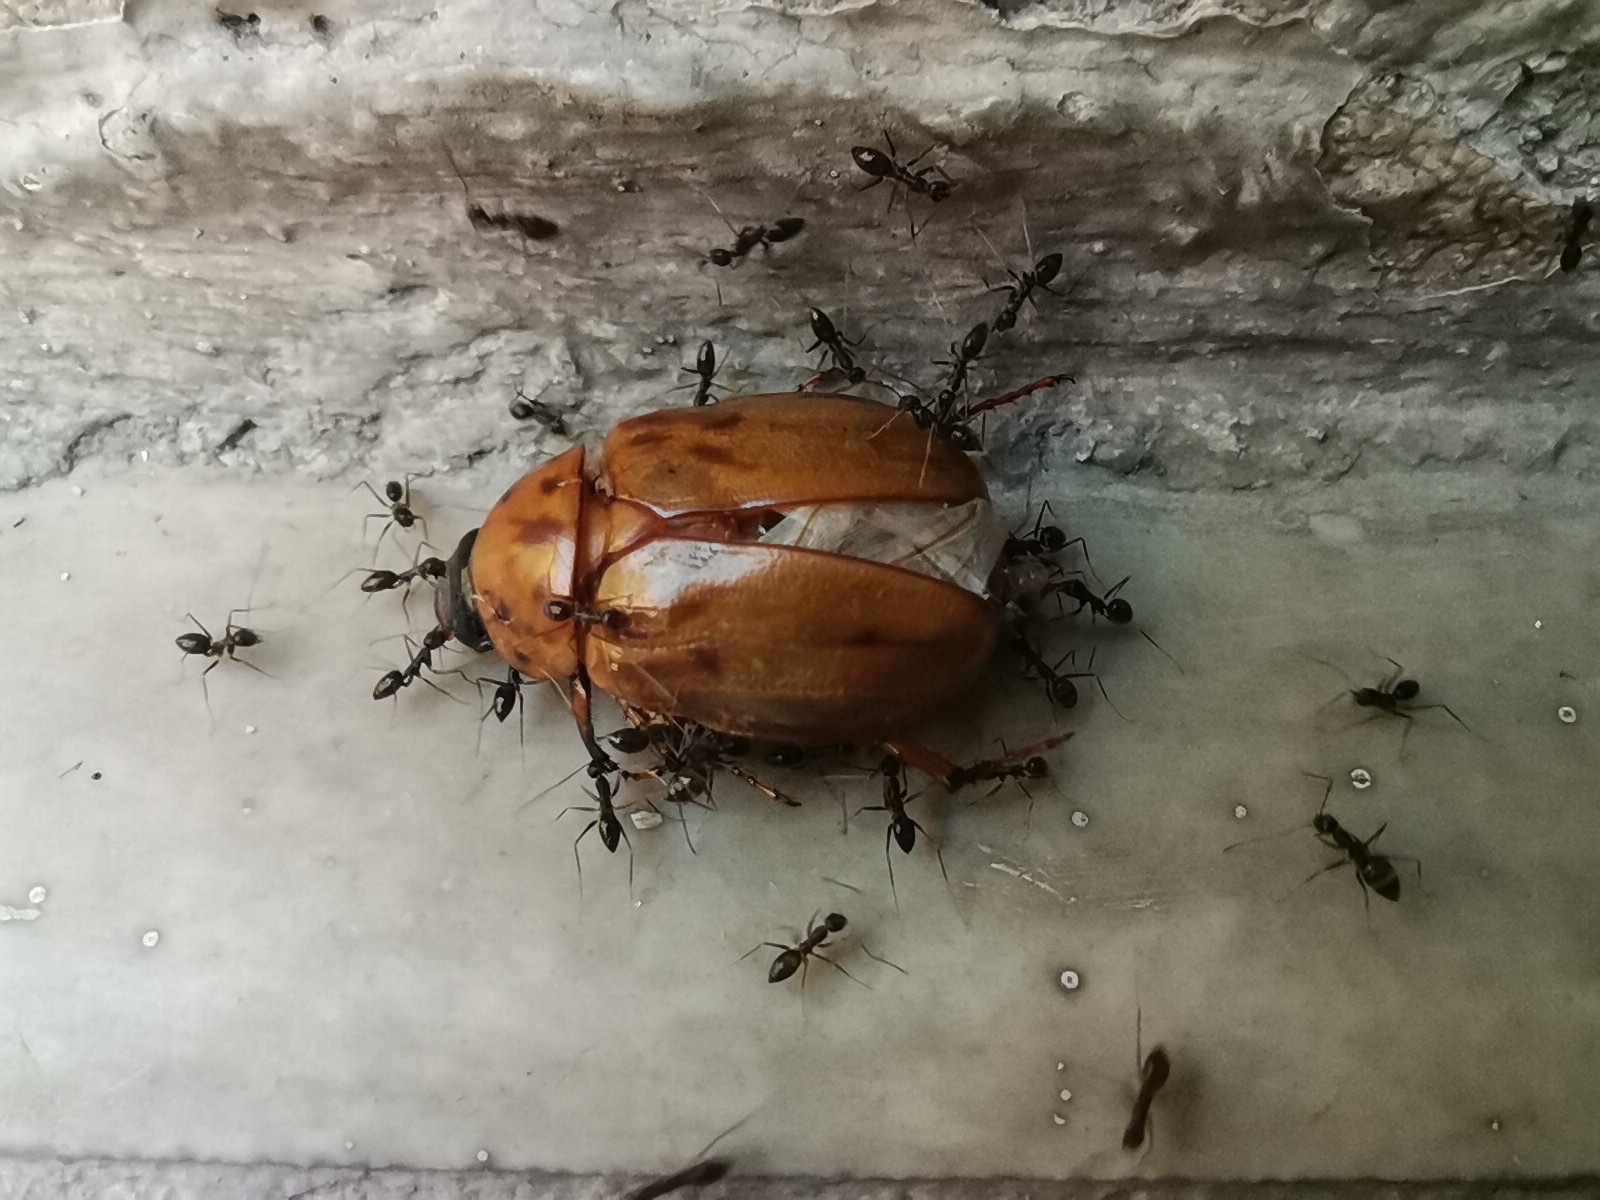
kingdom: Animalia
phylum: Arthropoda
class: Insecta
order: Hymenoptera
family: Formicidae
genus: Paratrechina
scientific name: Paratrechina longicornis
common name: Longhorned crazy ant
